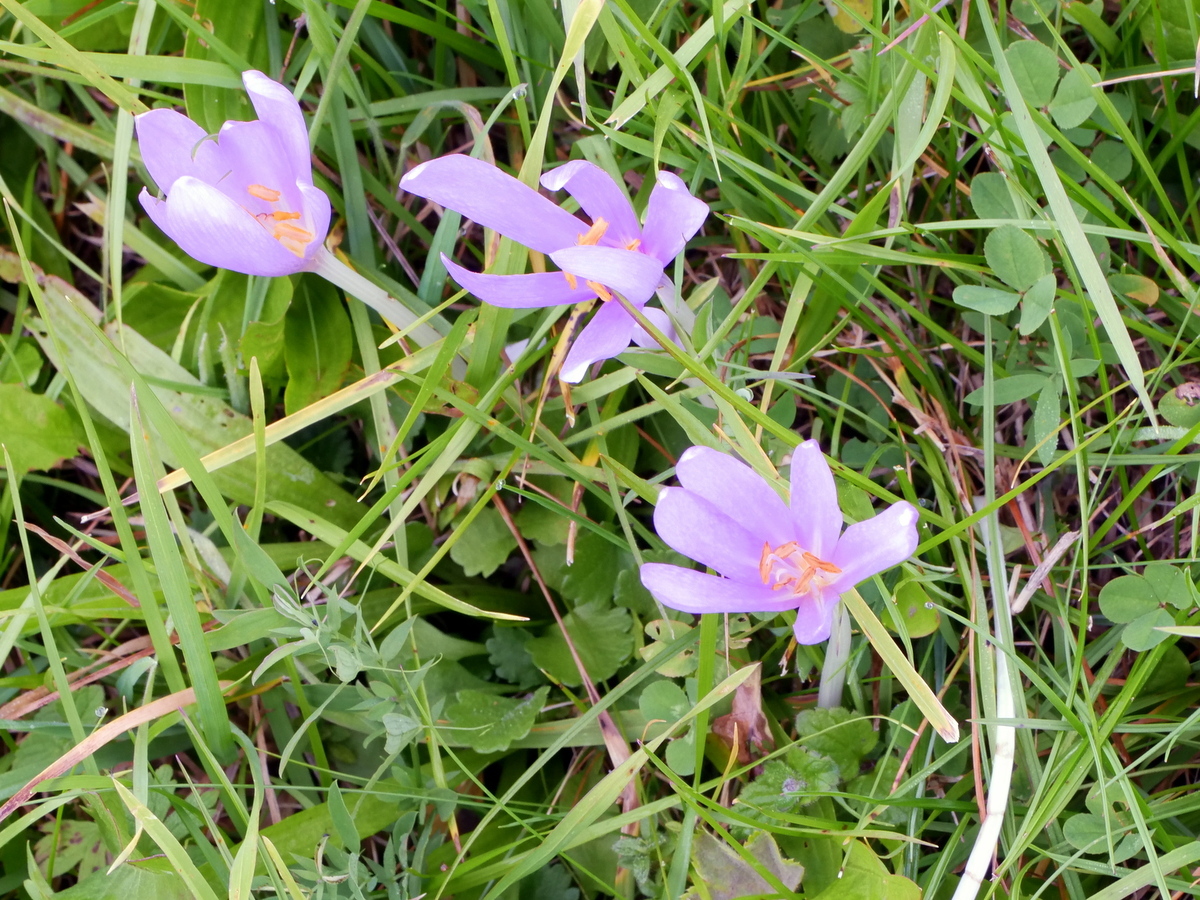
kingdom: Plantae
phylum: Tracheophyta
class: Liliopsida
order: Liliales
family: Colchicaceae
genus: Colchicum
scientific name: Colchicum autumnale
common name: Autumn crocus
